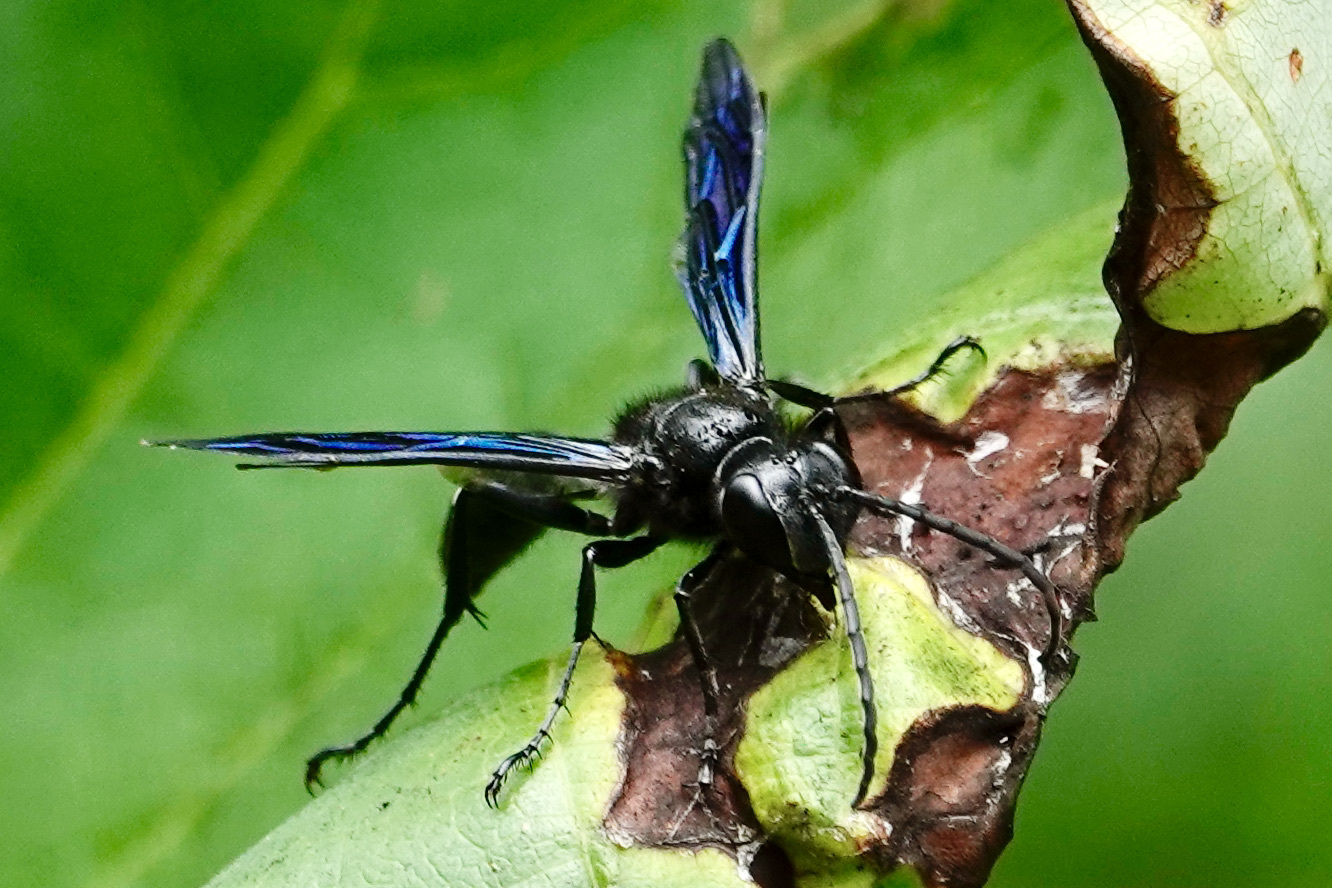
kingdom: Animalia
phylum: Arthropoda
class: Insecta
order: Hymenoptera
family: Sphecidae
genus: Isodontia
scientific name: Isodontia philadelphica
